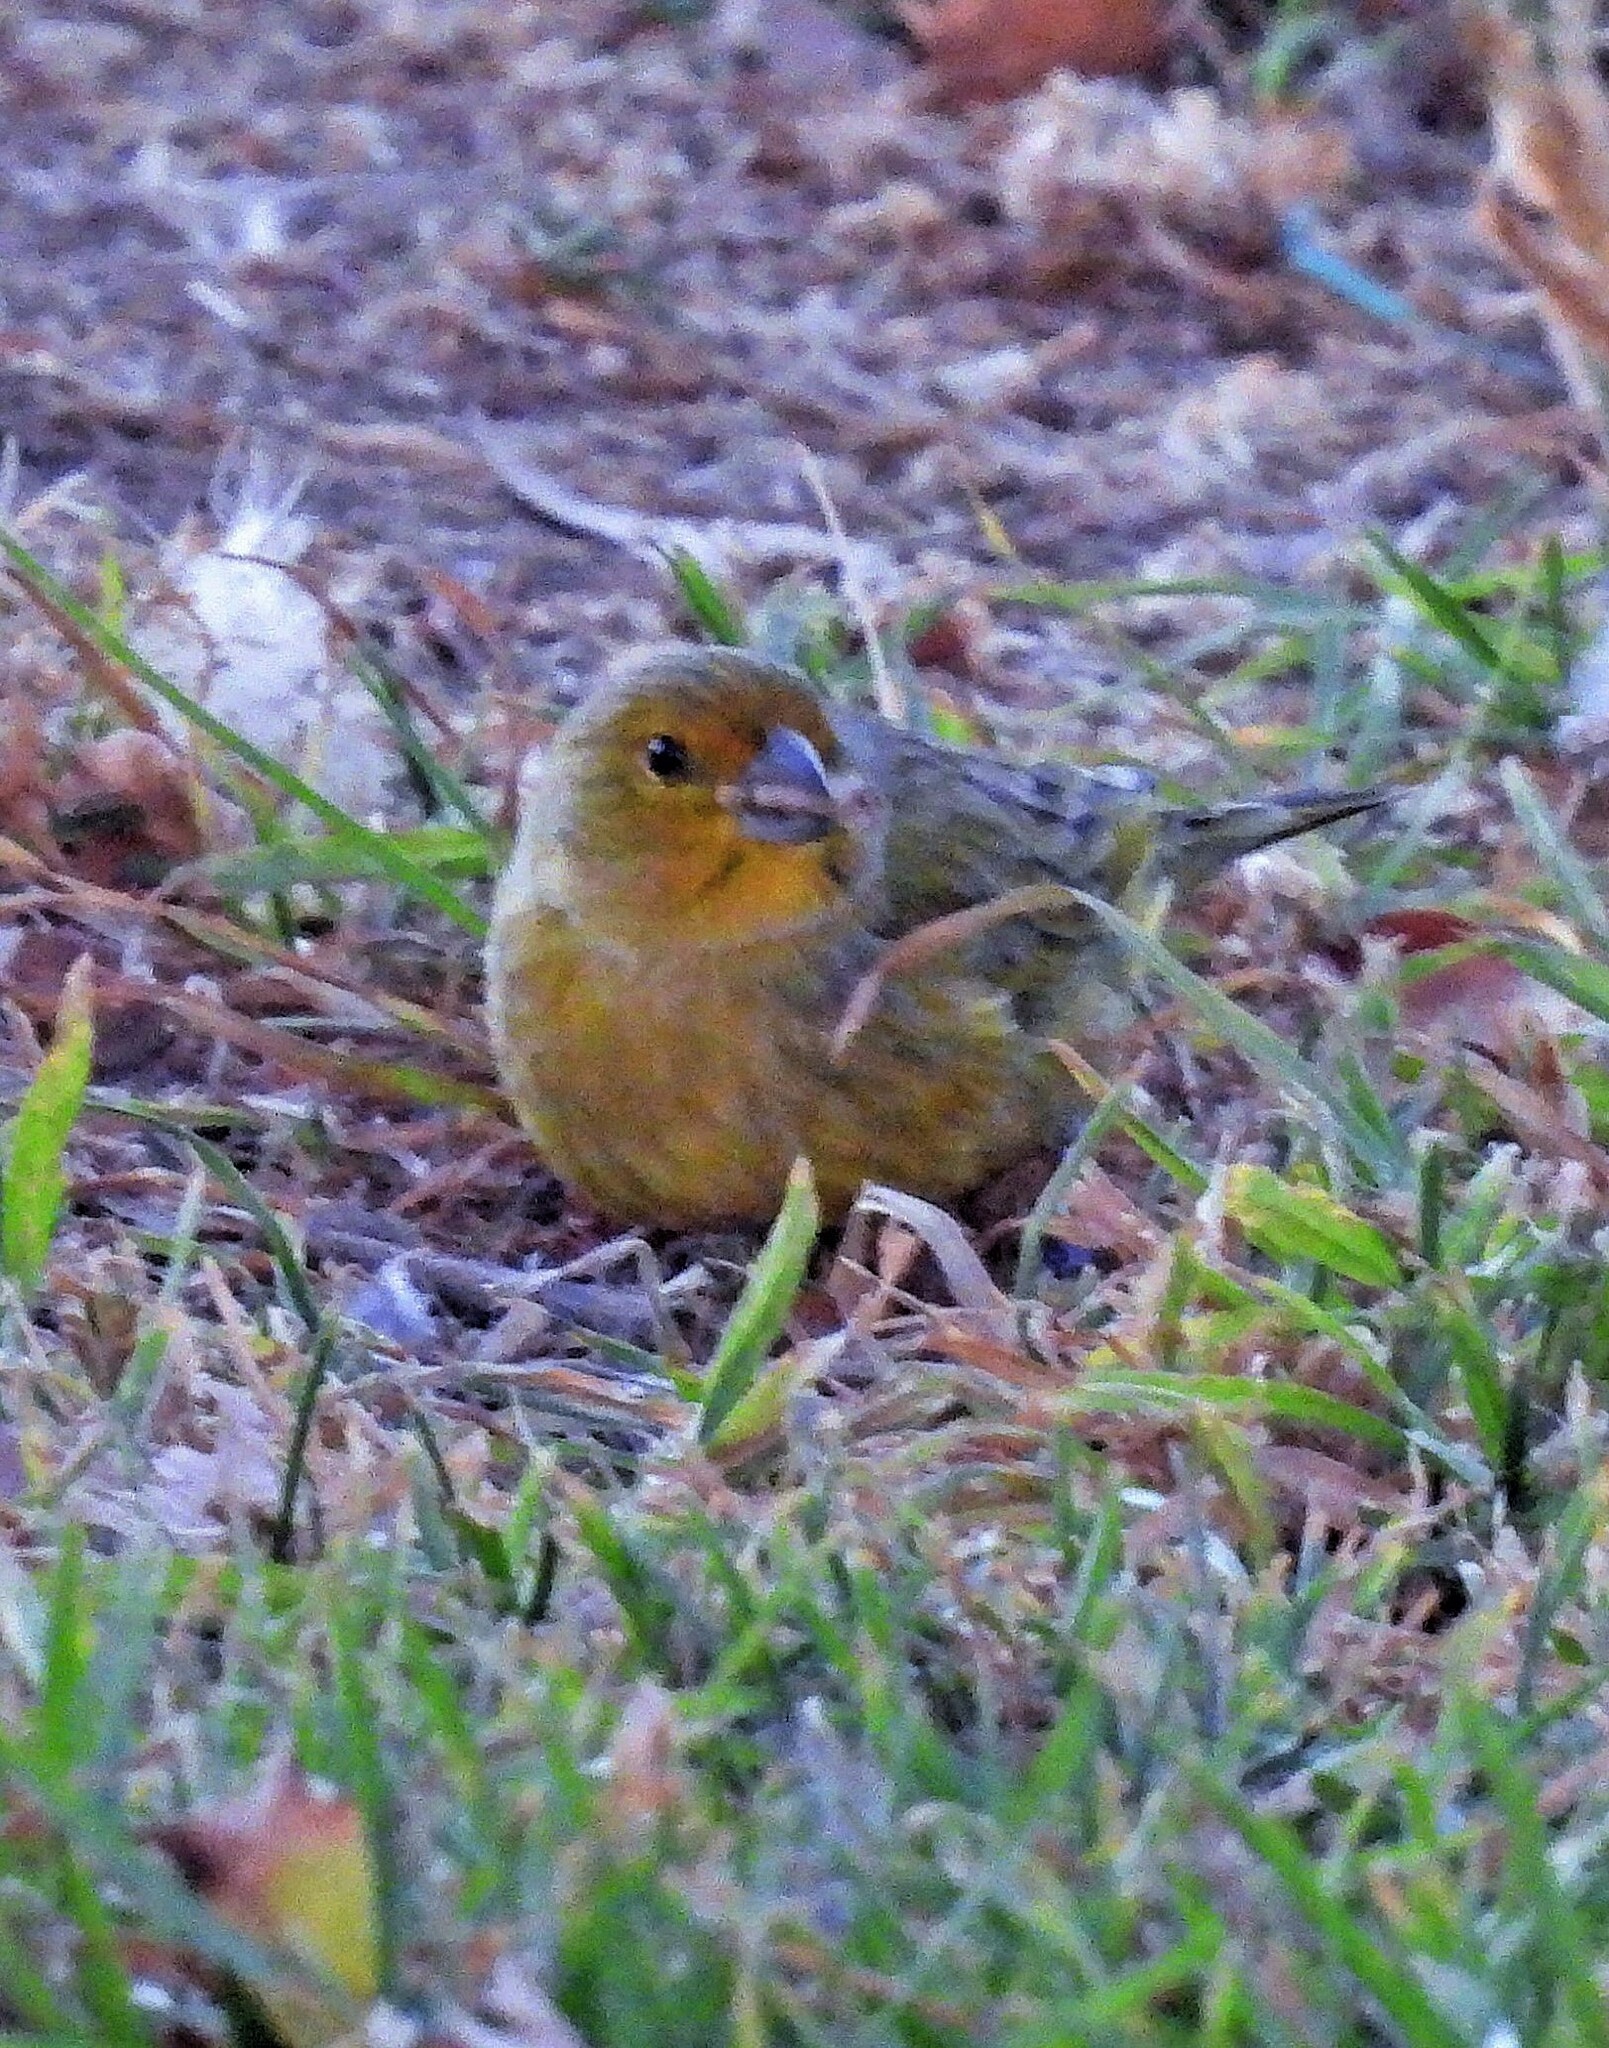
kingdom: Animalia
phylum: Chordata
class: Aves
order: Passeriformes
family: Thraupidae
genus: Sicalis
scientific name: Sicalis flaveola
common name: Saffron finch
